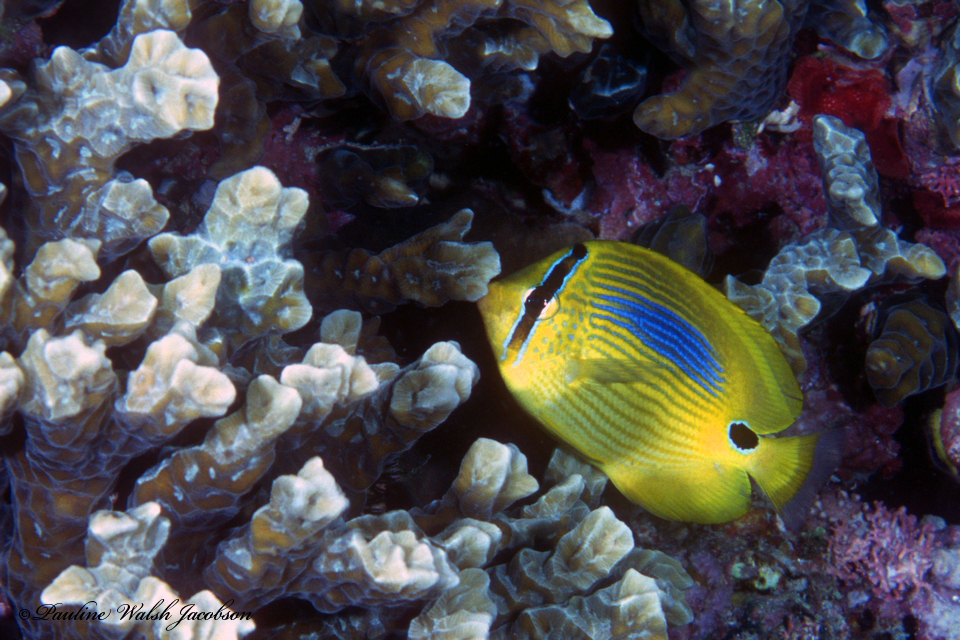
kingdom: Animalia
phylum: Chordata
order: Perciformes
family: Chaetodontidae
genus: Chaetodon
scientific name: Chaetodon plebeius
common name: Bluespot butterflyfish
